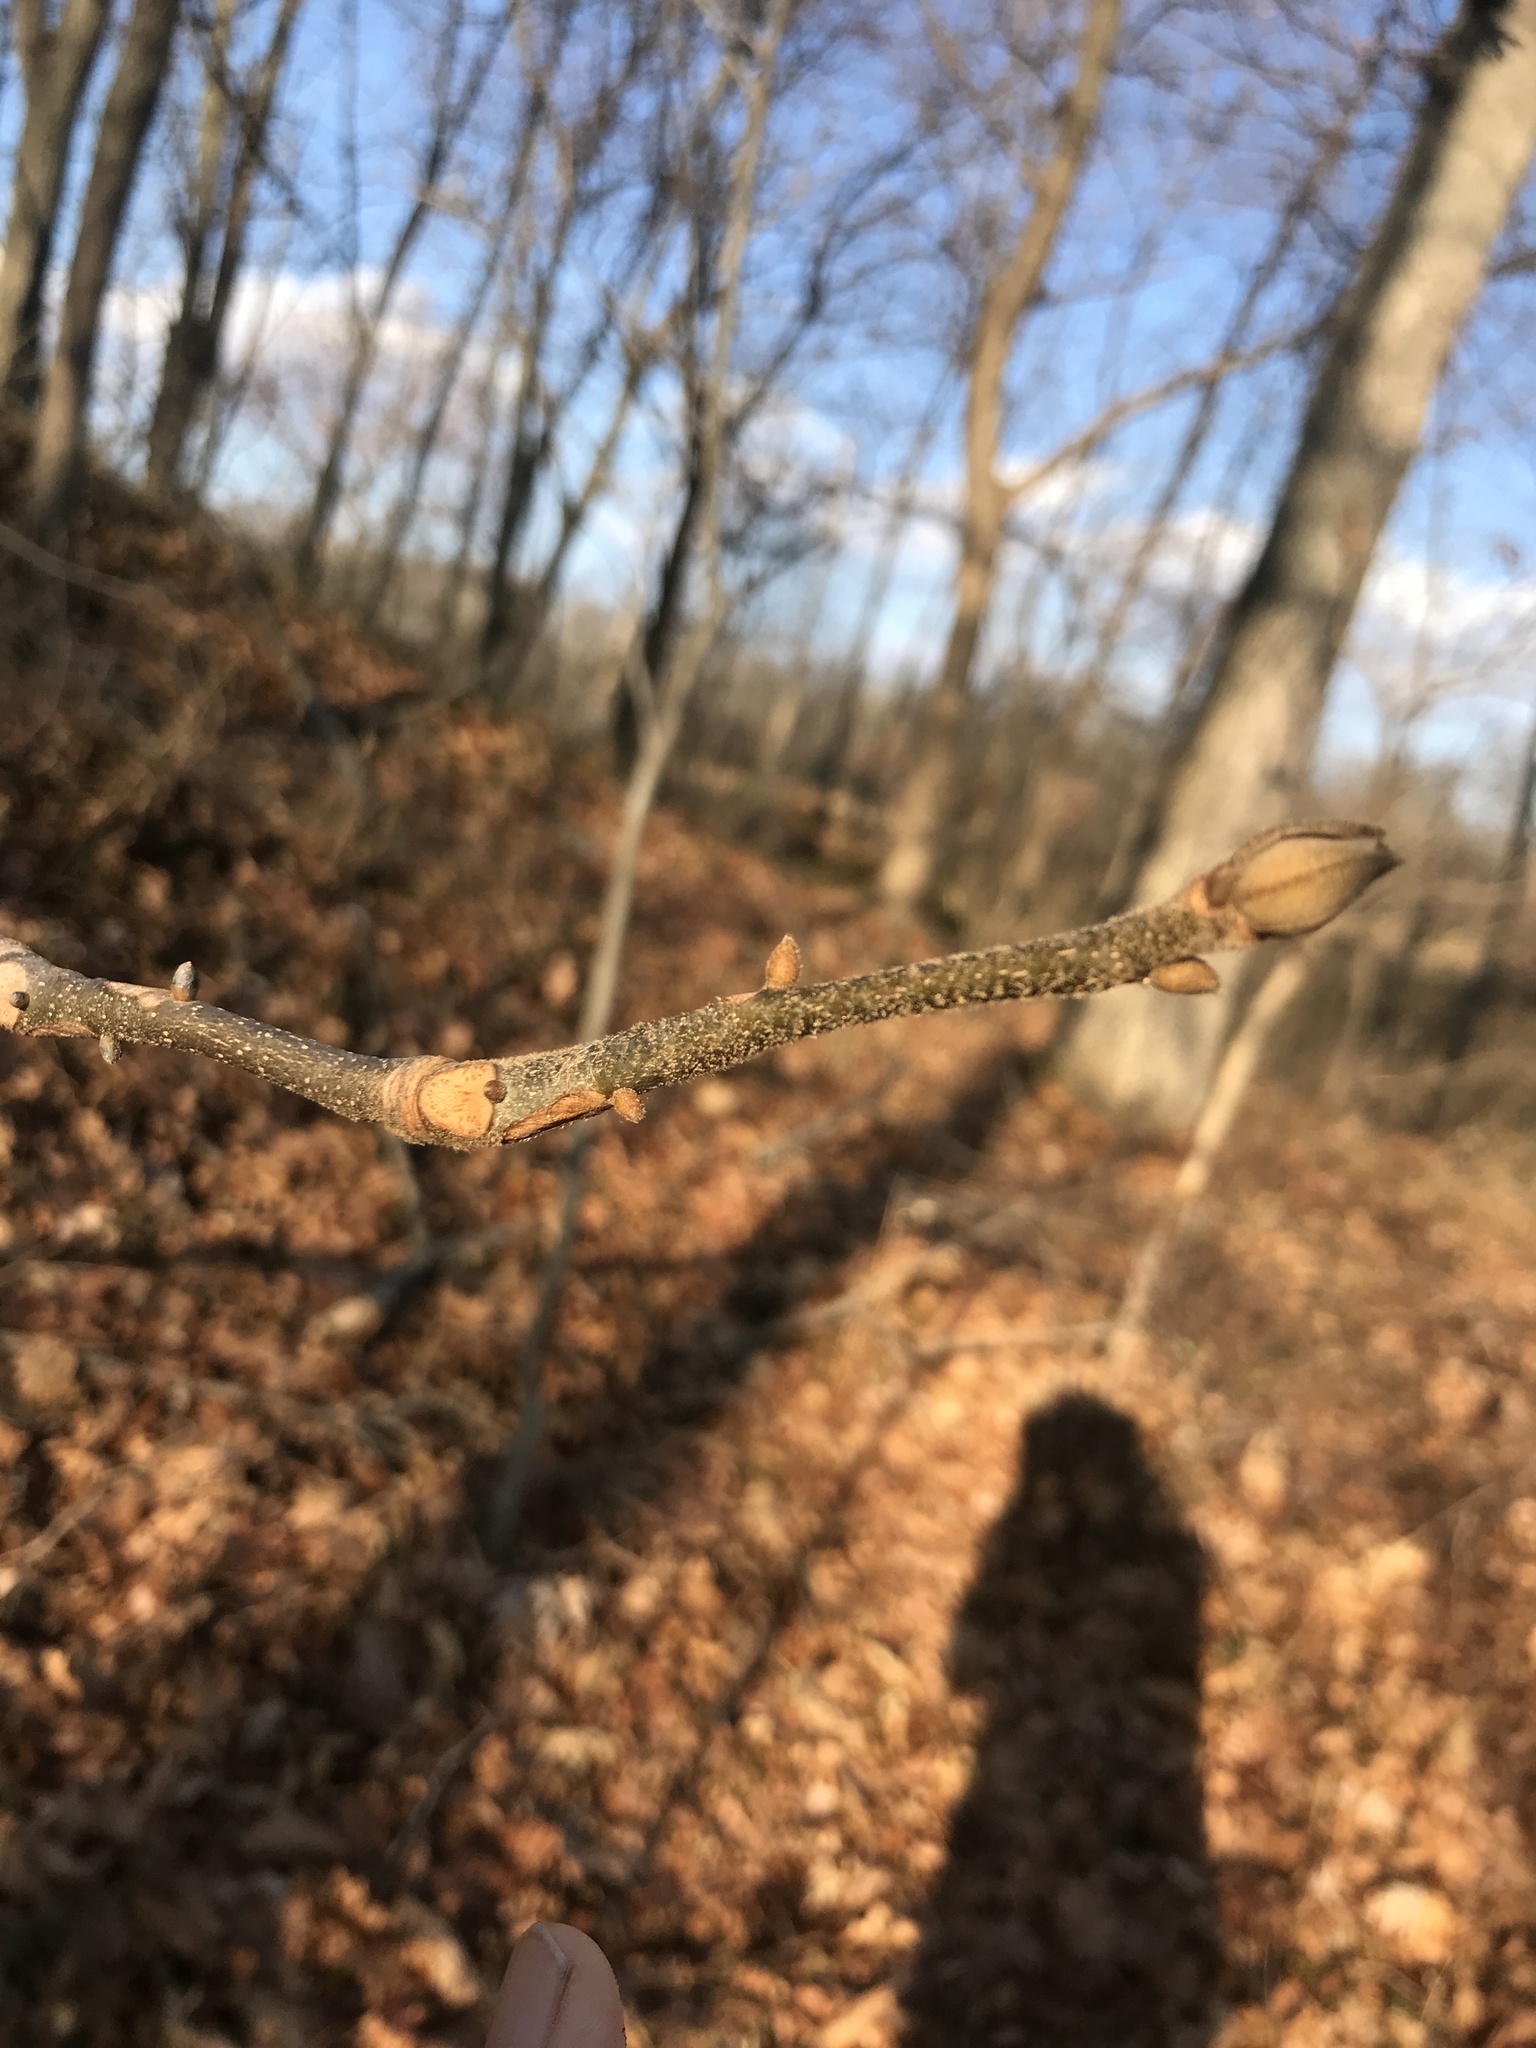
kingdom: Plantae
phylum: Tracheophyta
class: Magnoliopsida
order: Fagales
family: Juglandaceae
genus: Carya
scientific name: Carya alba
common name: Mockernut hickory
